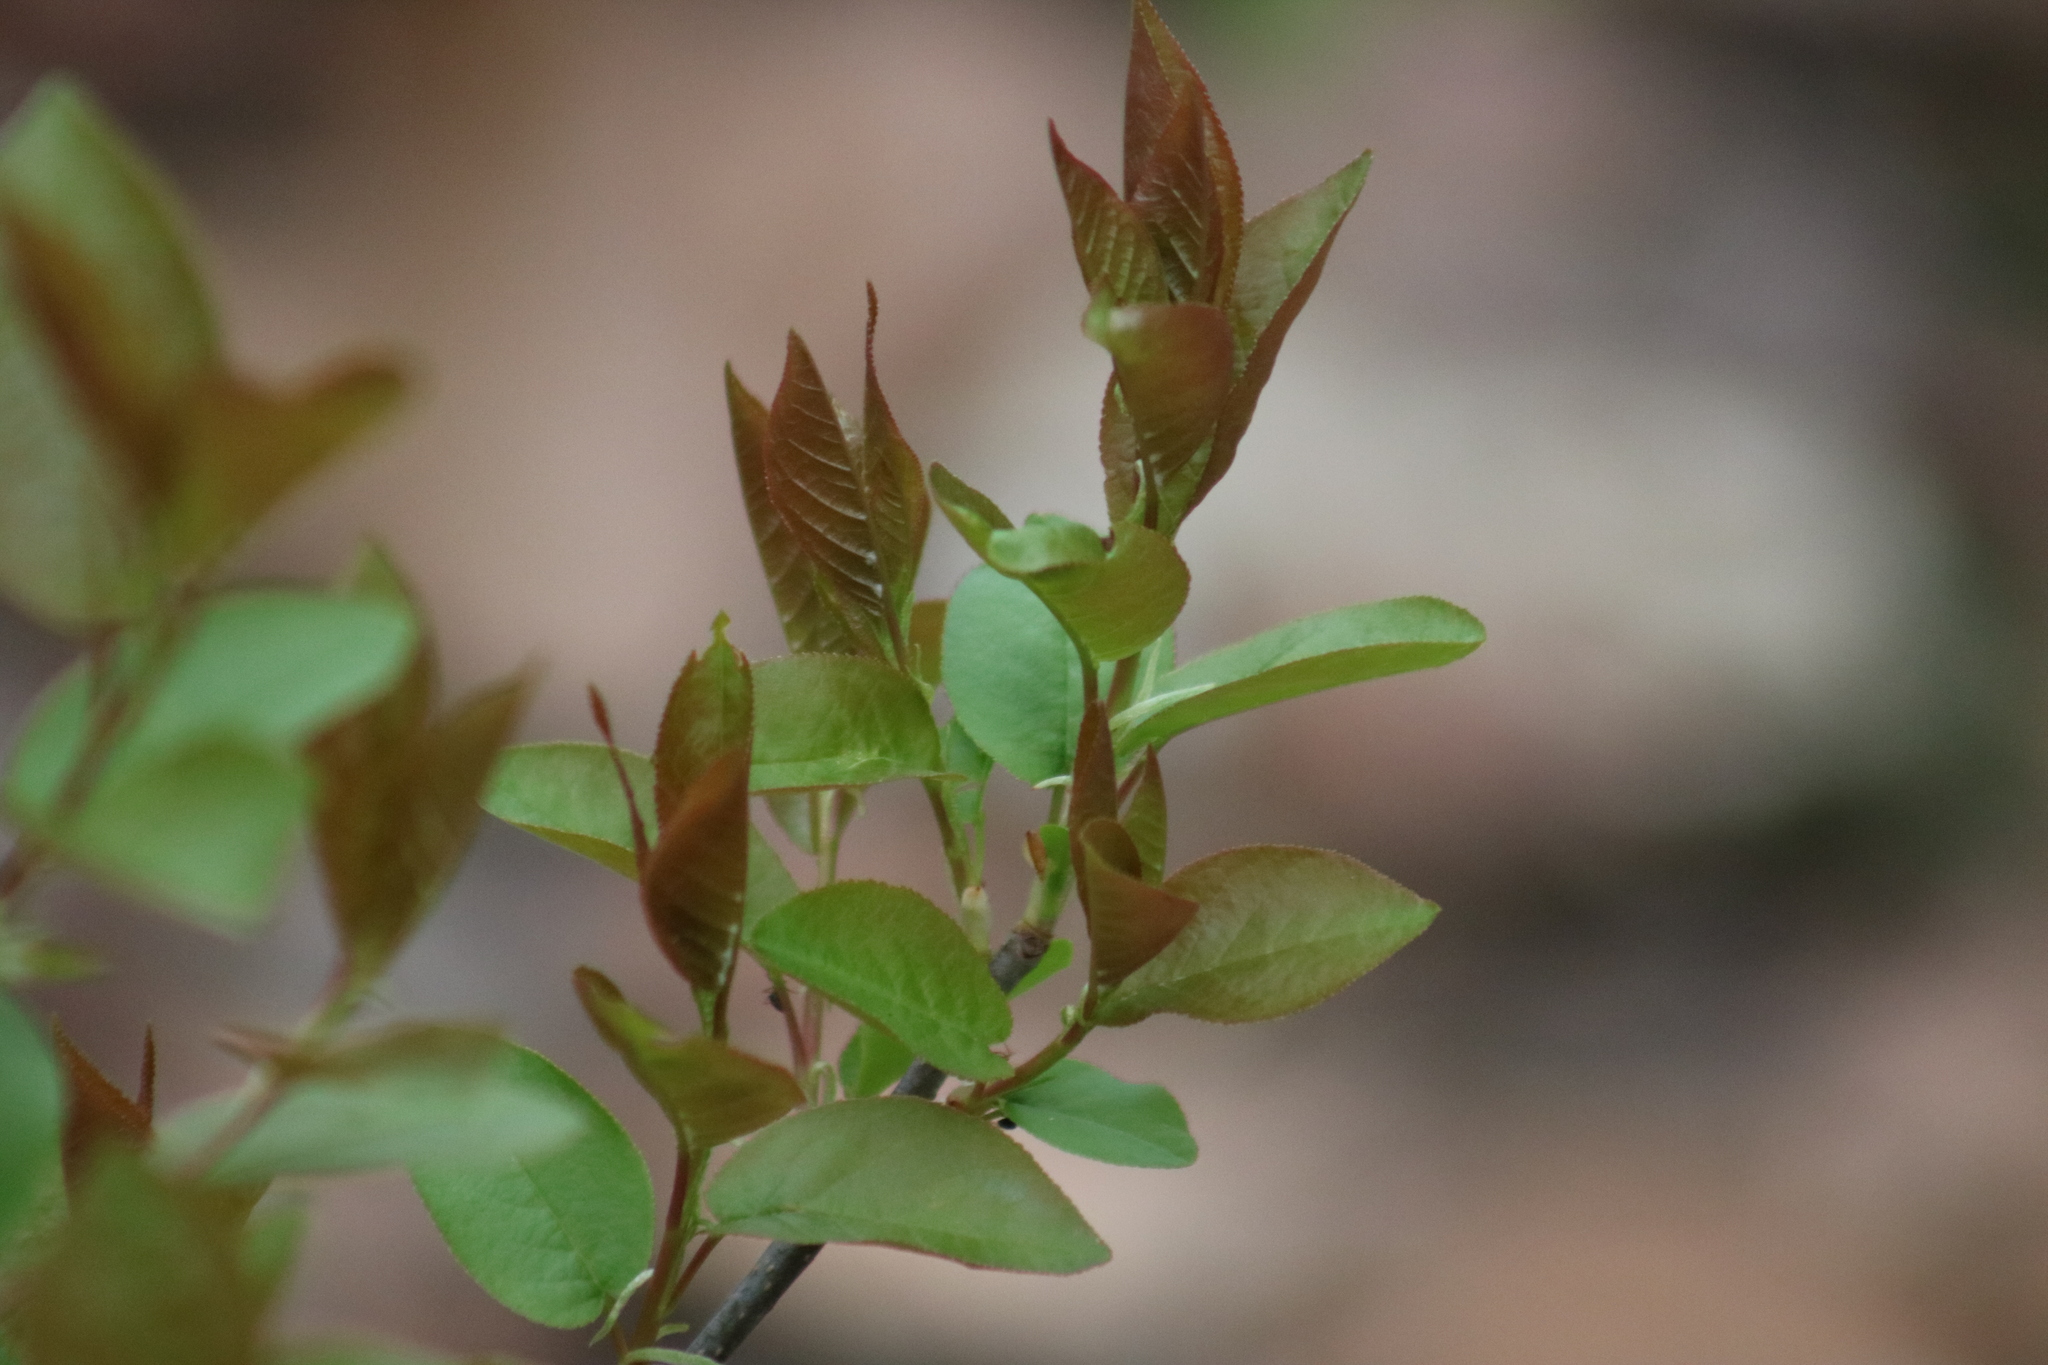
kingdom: Plantae
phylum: Tracheophyta
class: Magnoliopsida
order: Rosales
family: Rosaceae
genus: Prunus
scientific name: Prunus virginiana
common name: Chokecherry
